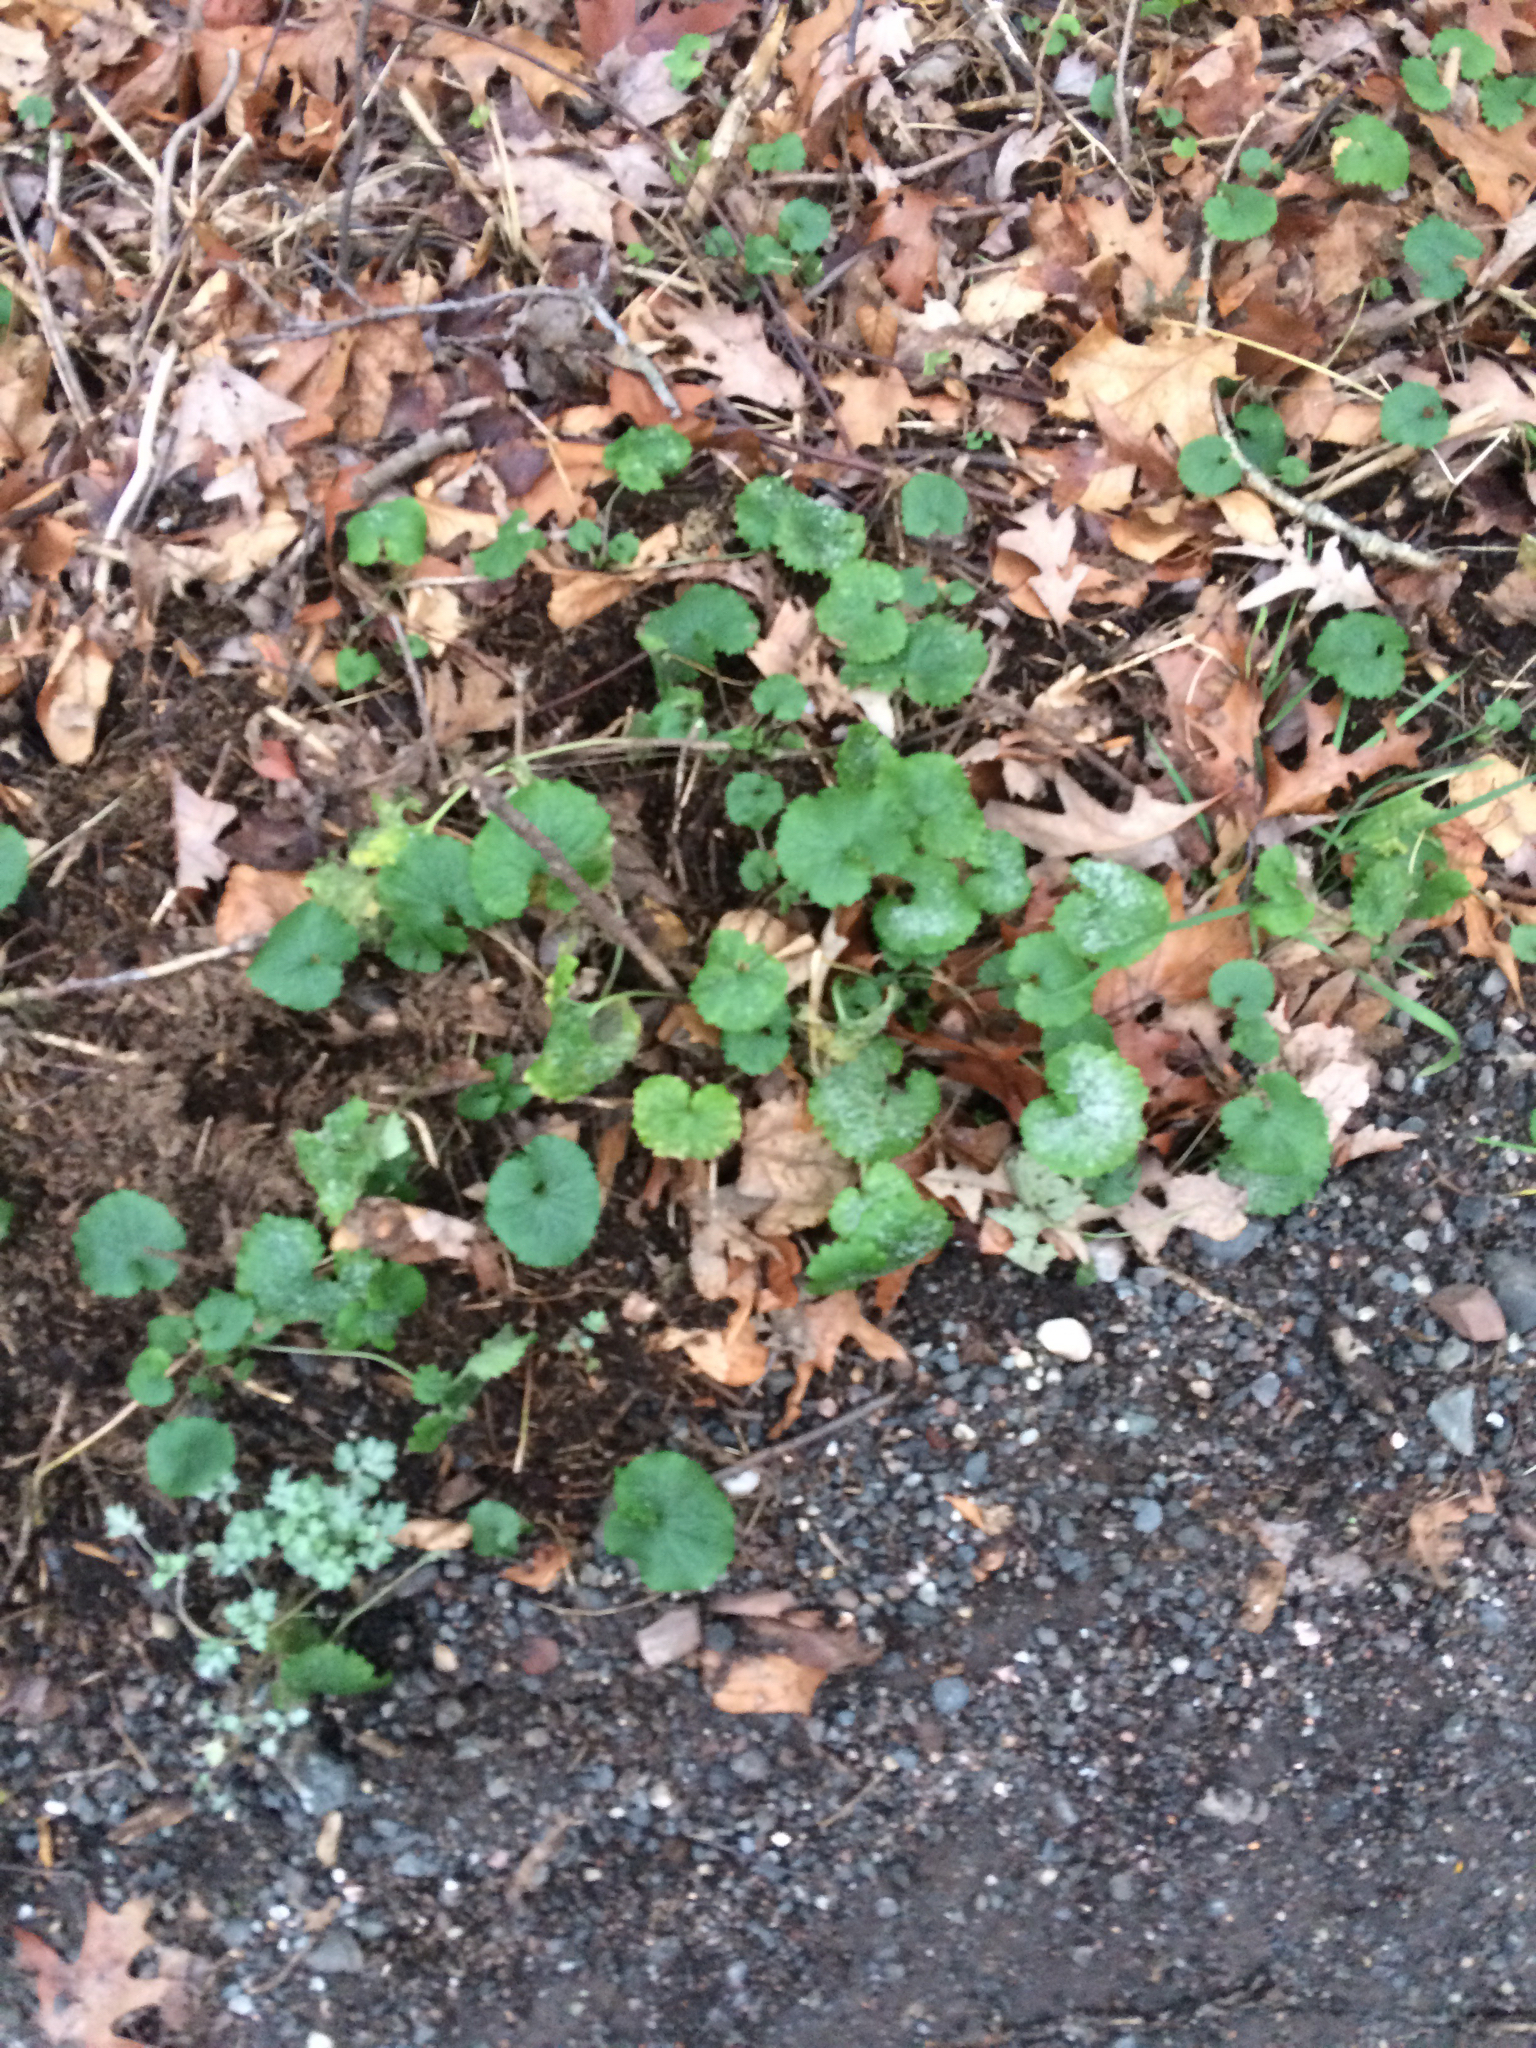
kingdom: Plantae
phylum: Tracheophyta
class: Magnoliopsida
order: Brassicales
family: Brassicaceae
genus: Alliaria
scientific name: Alliaria petiolata
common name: Garlic mustard
